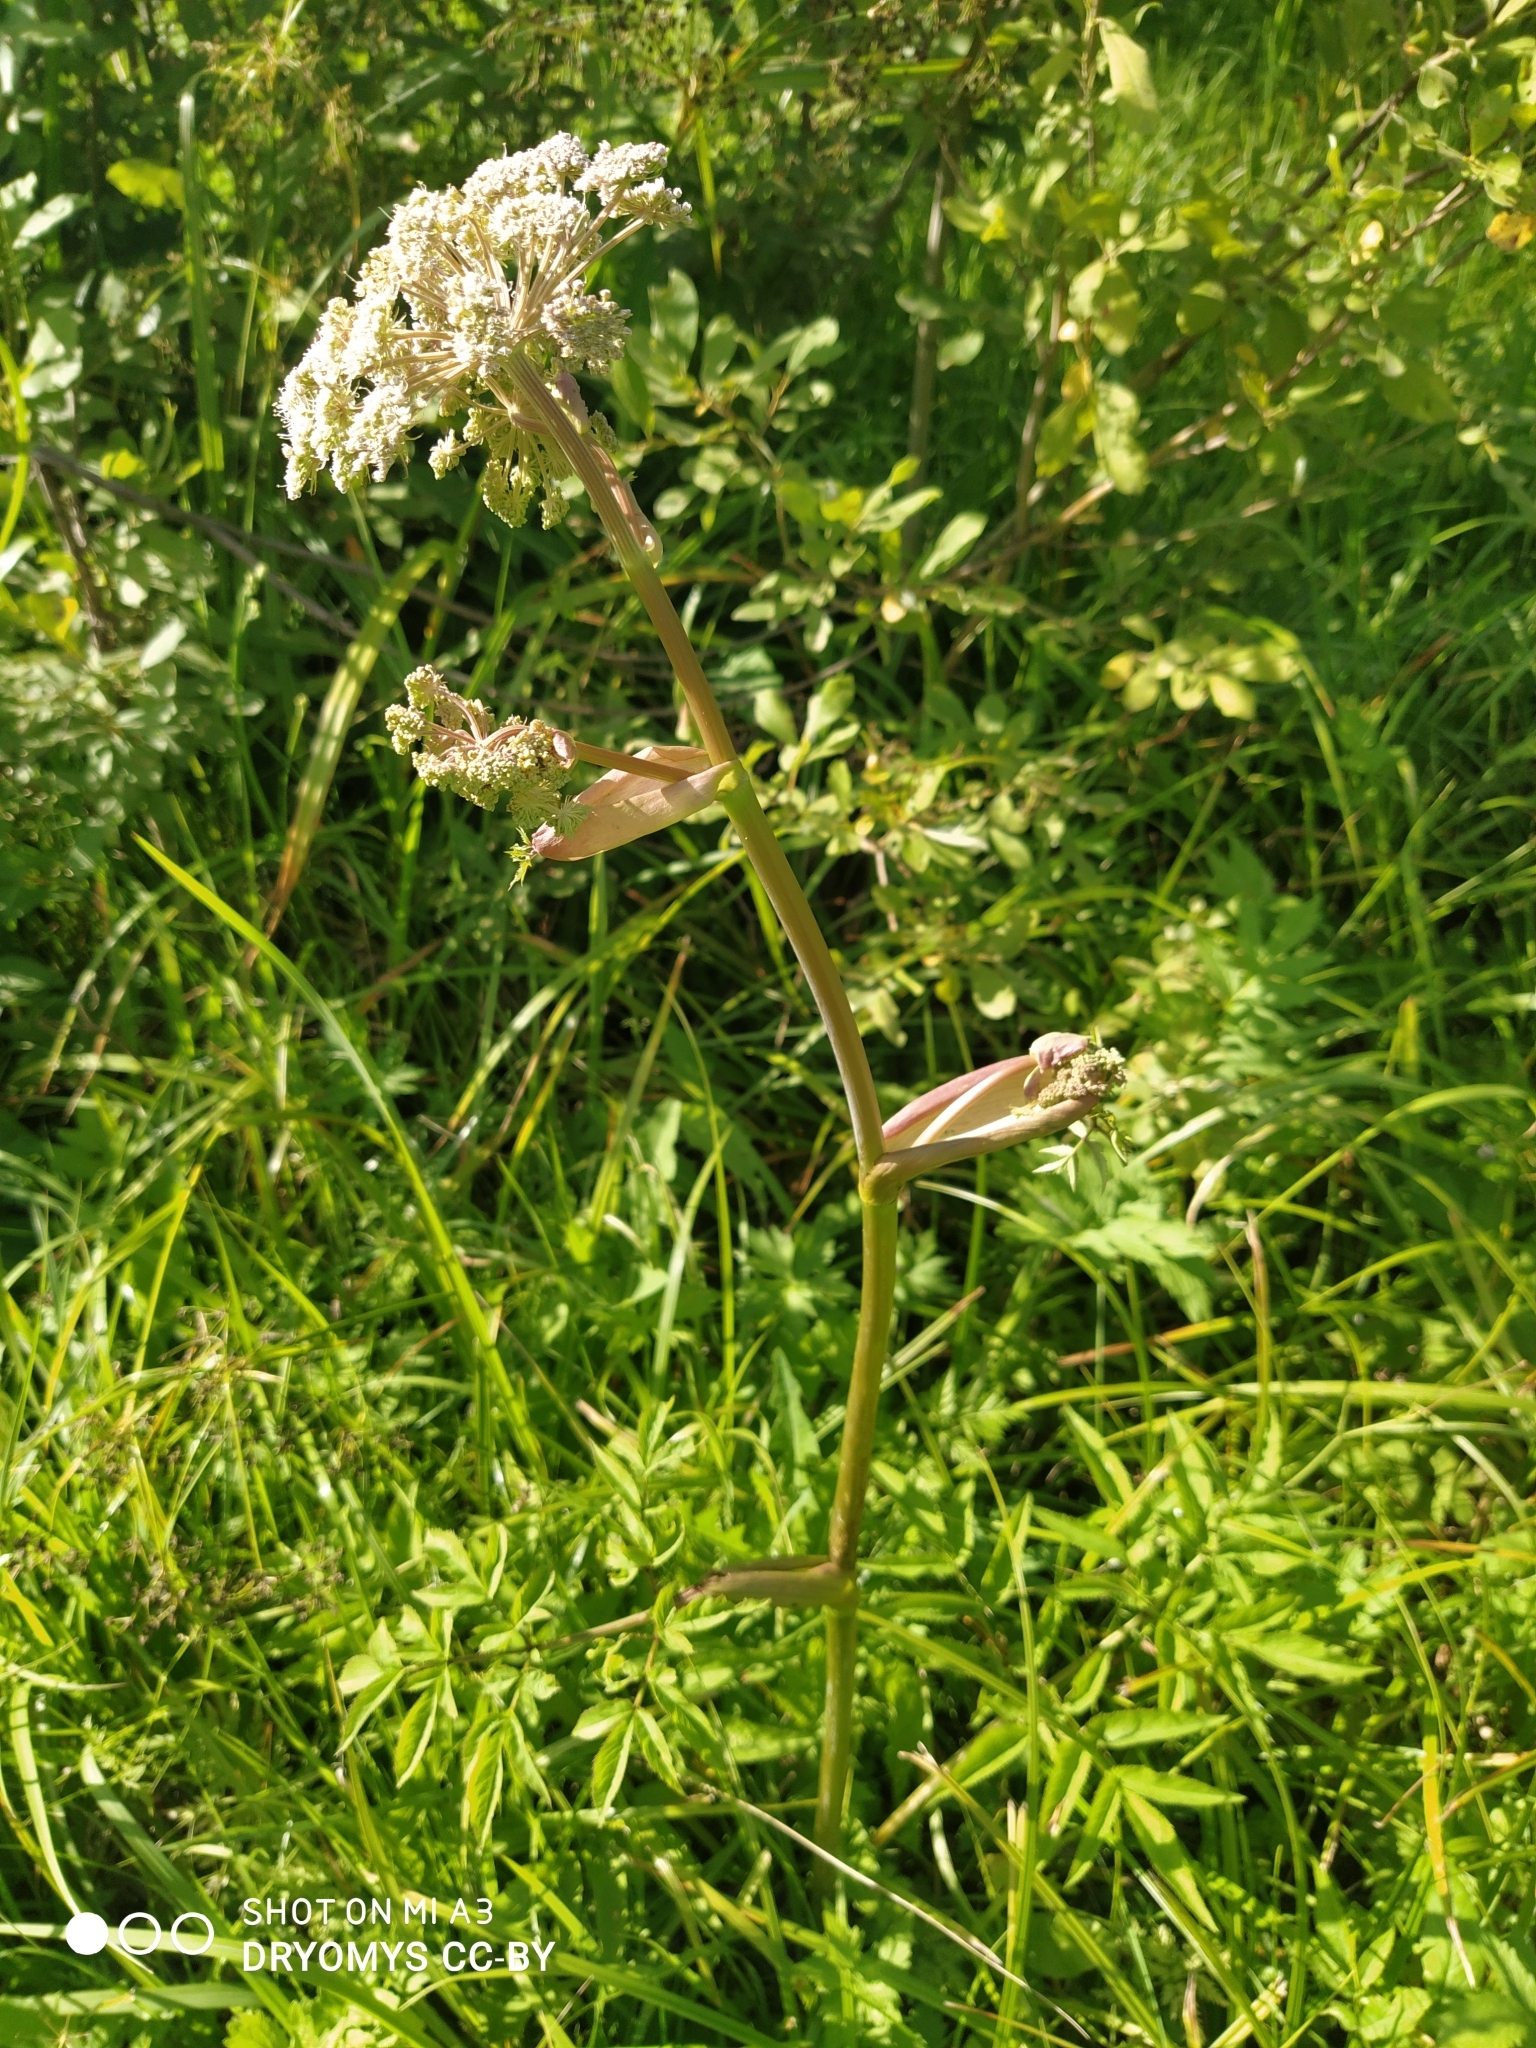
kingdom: Plantae
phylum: Tracheophyta
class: Magnoliopsida
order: Apiales
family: Apiaceae
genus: Angelica
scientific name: Angelica sylvestris
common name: Wild angelica
